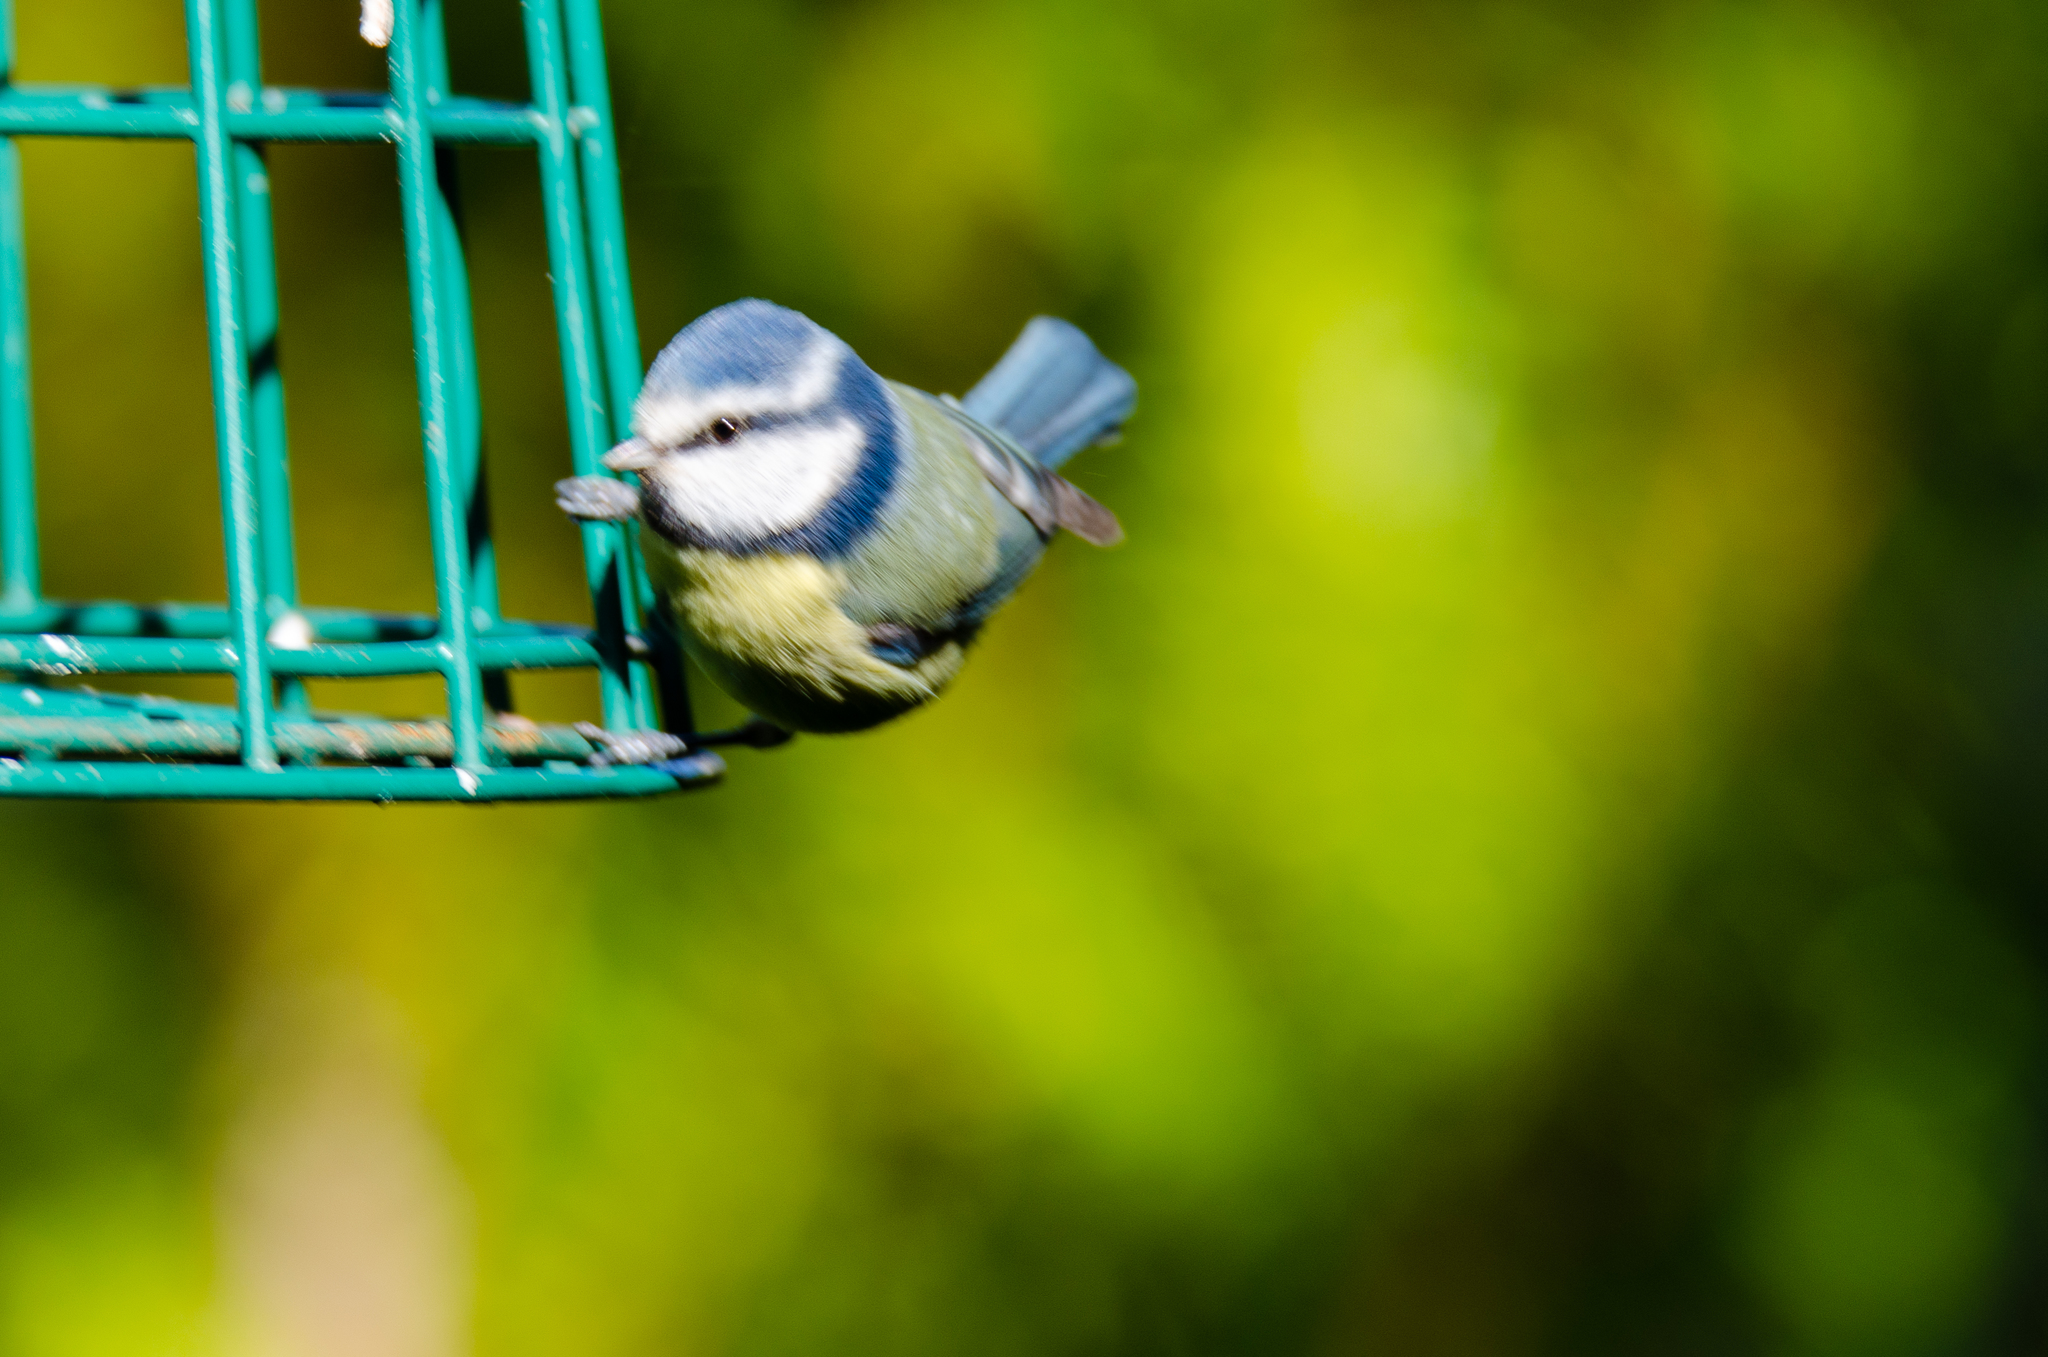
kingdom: Animalia
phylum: Chordata
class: Aves
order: Passeriformes
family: Paridae
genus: Cyanistes
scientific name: Cyanistes caeruleus
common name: Eurasian blue tit
